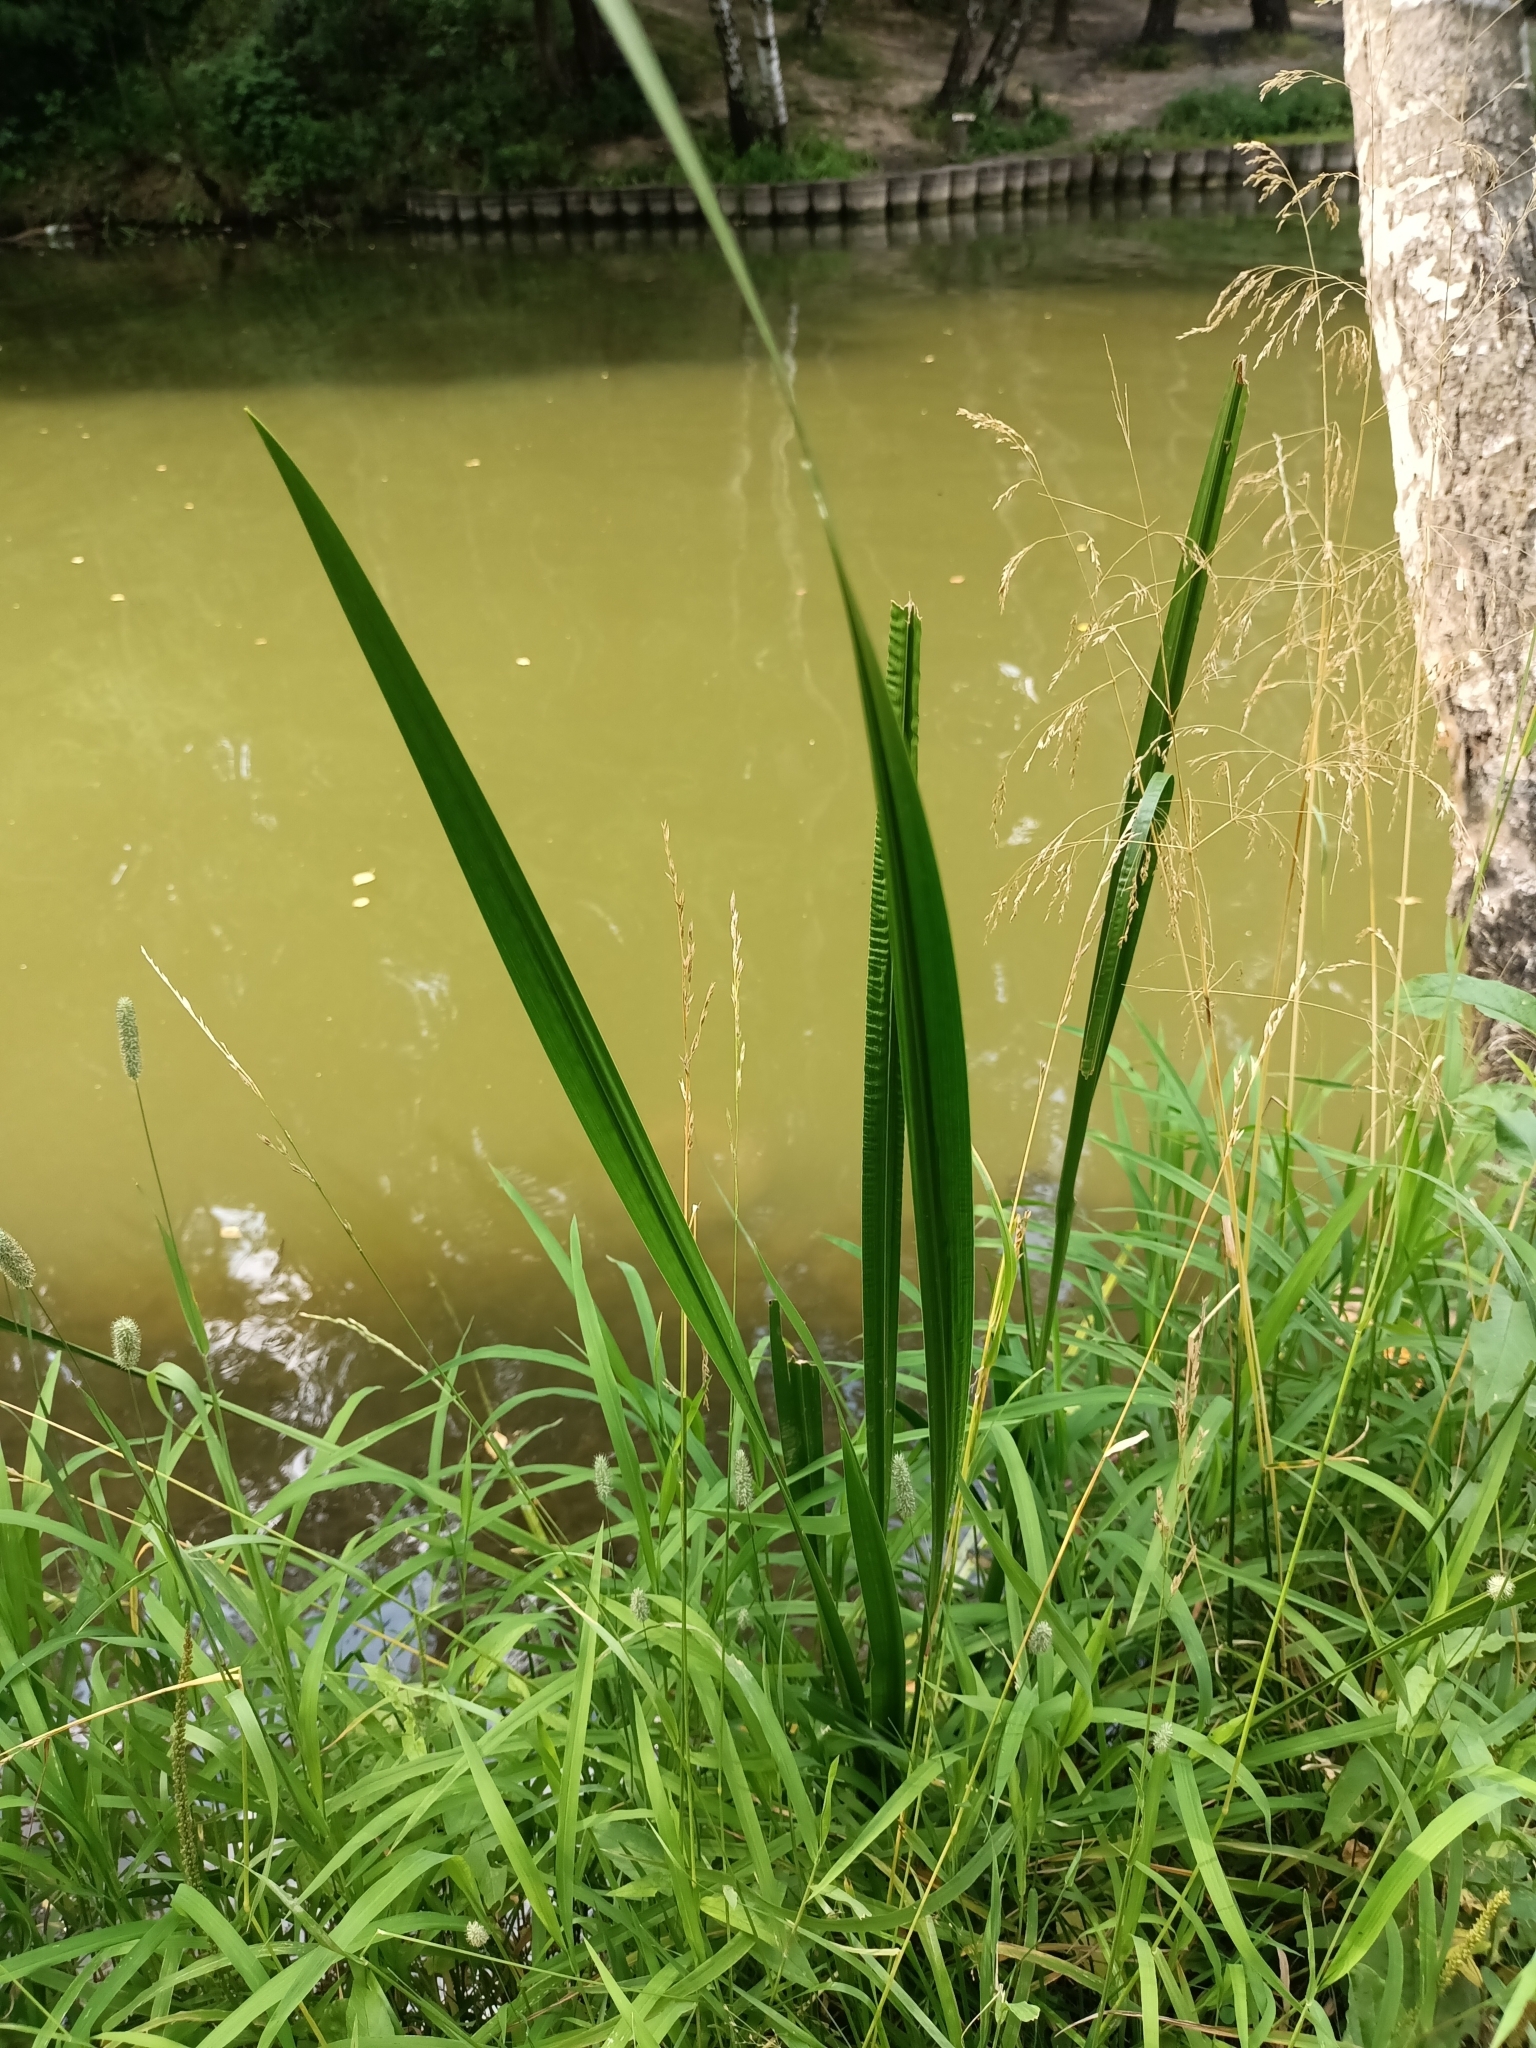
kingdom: Plantae
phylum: Tracheophyta
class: Liliopsida
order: Acorales
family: Acoraceae
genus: Acorus
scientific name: Acorus calamus
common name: Sweet-flag
